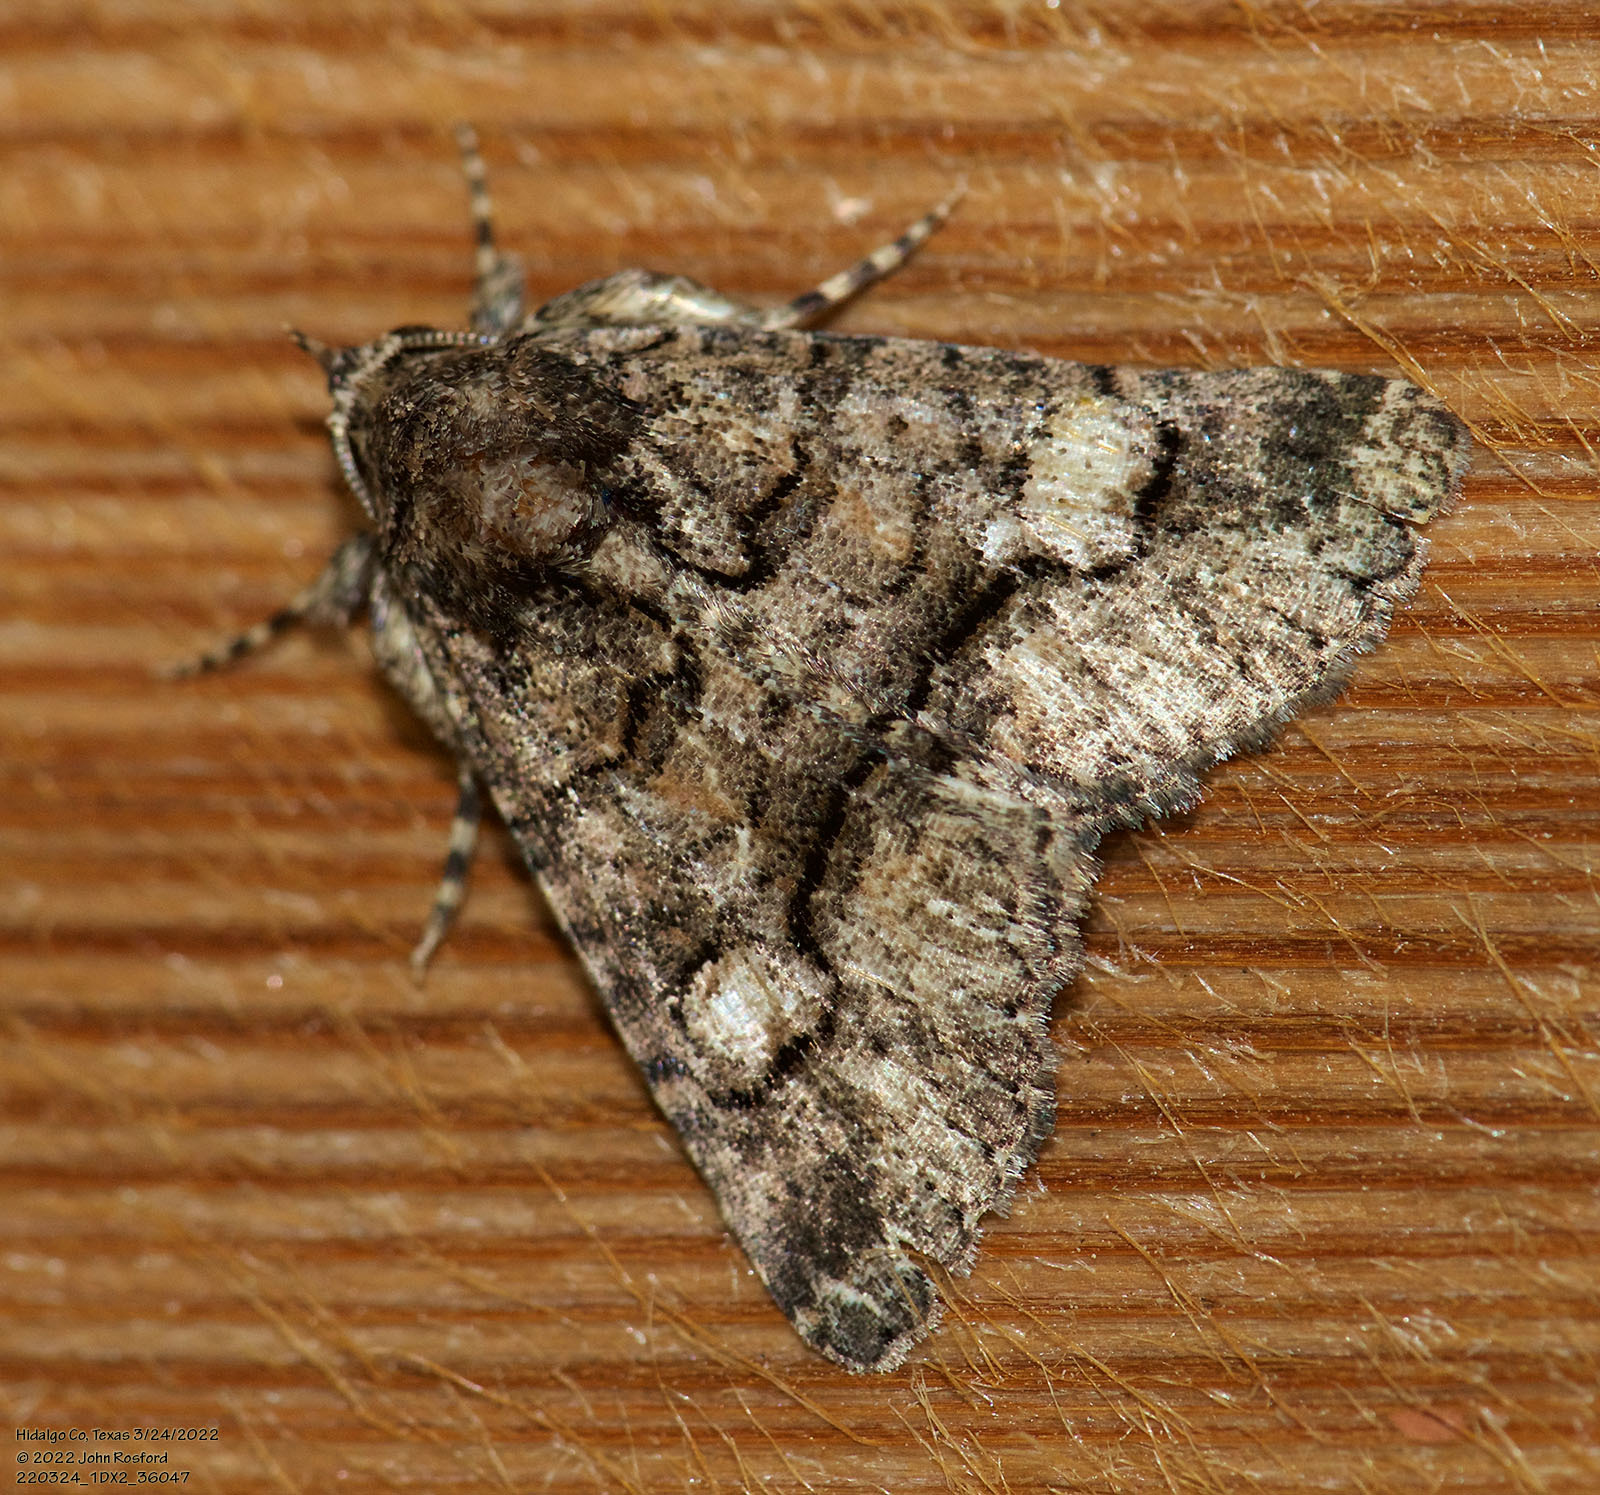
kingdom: Animalia
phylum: Arthropoda
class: Insecta
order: Lepidoptera
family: Erebidae
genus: Elousa
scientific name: Elousa mima
